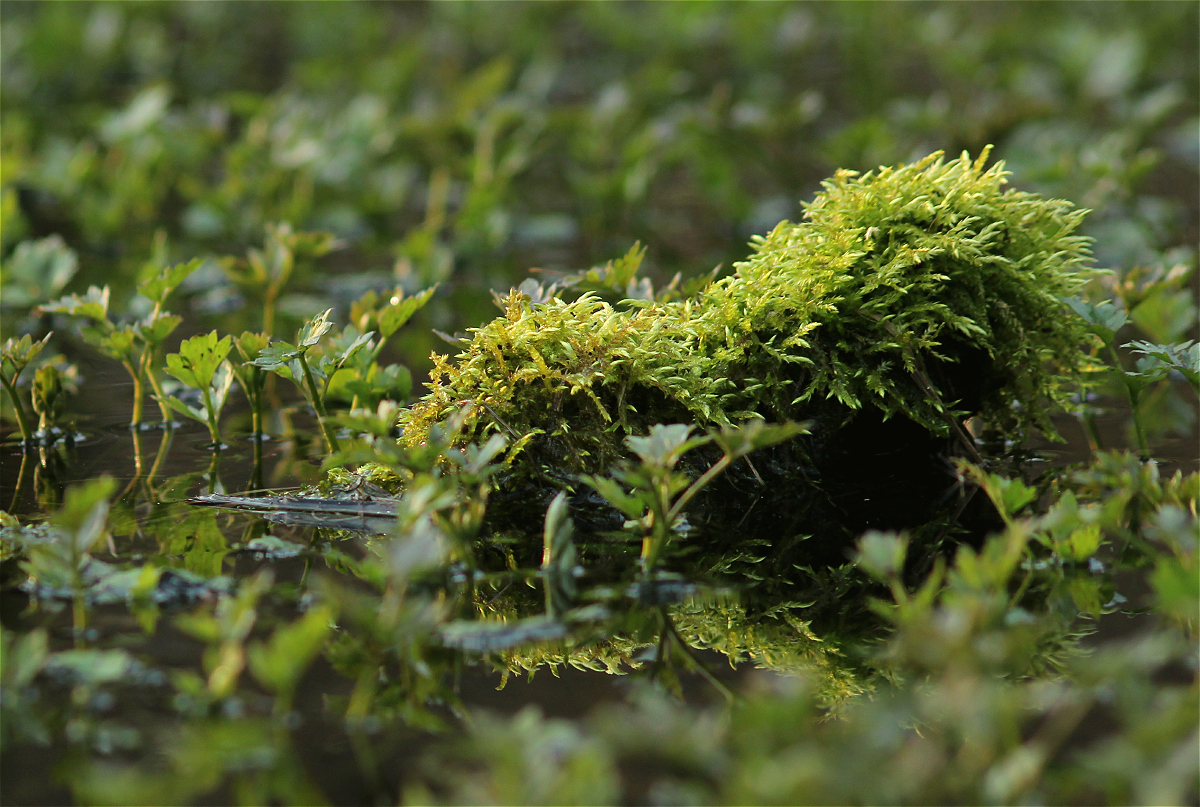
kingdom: Plantae
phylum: Bryophyta
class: Bryopsida
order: Hypnales
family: Brachytheciaceae
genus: Brachythecium
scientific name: Brachythecium rivulare
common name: River ragged moss
